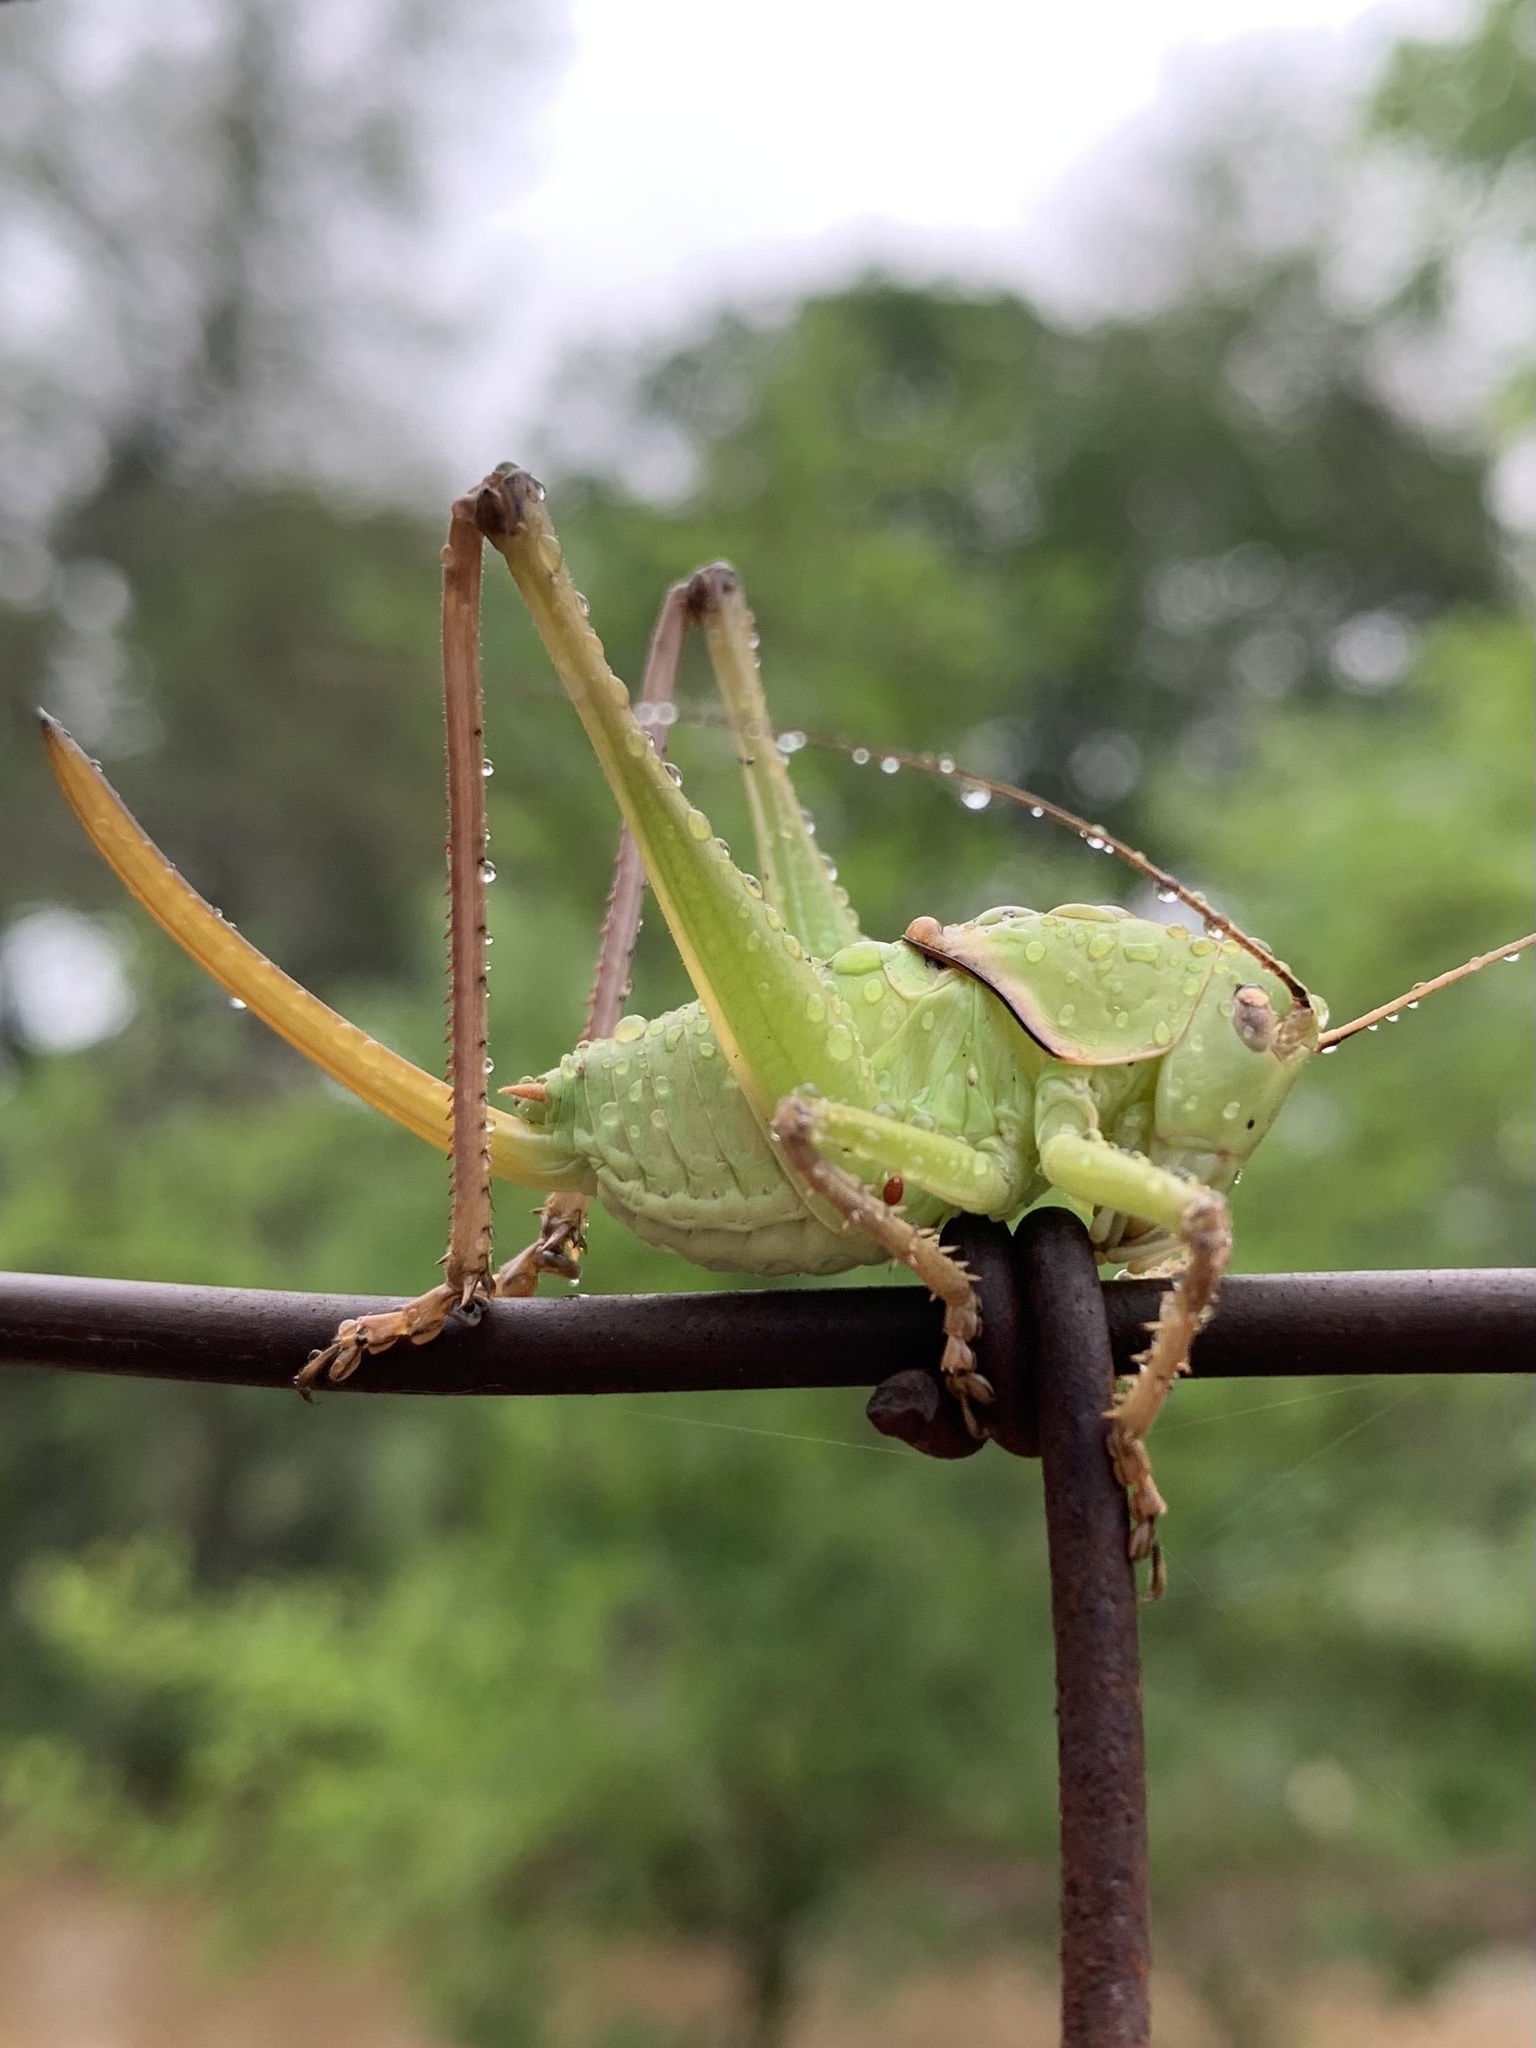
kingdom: Animalia
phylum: Arthropoda
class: Insecta
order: Orthoptera
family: Tettigoniidae
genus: Pediodectes
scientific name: Pediodectes haldemanii
